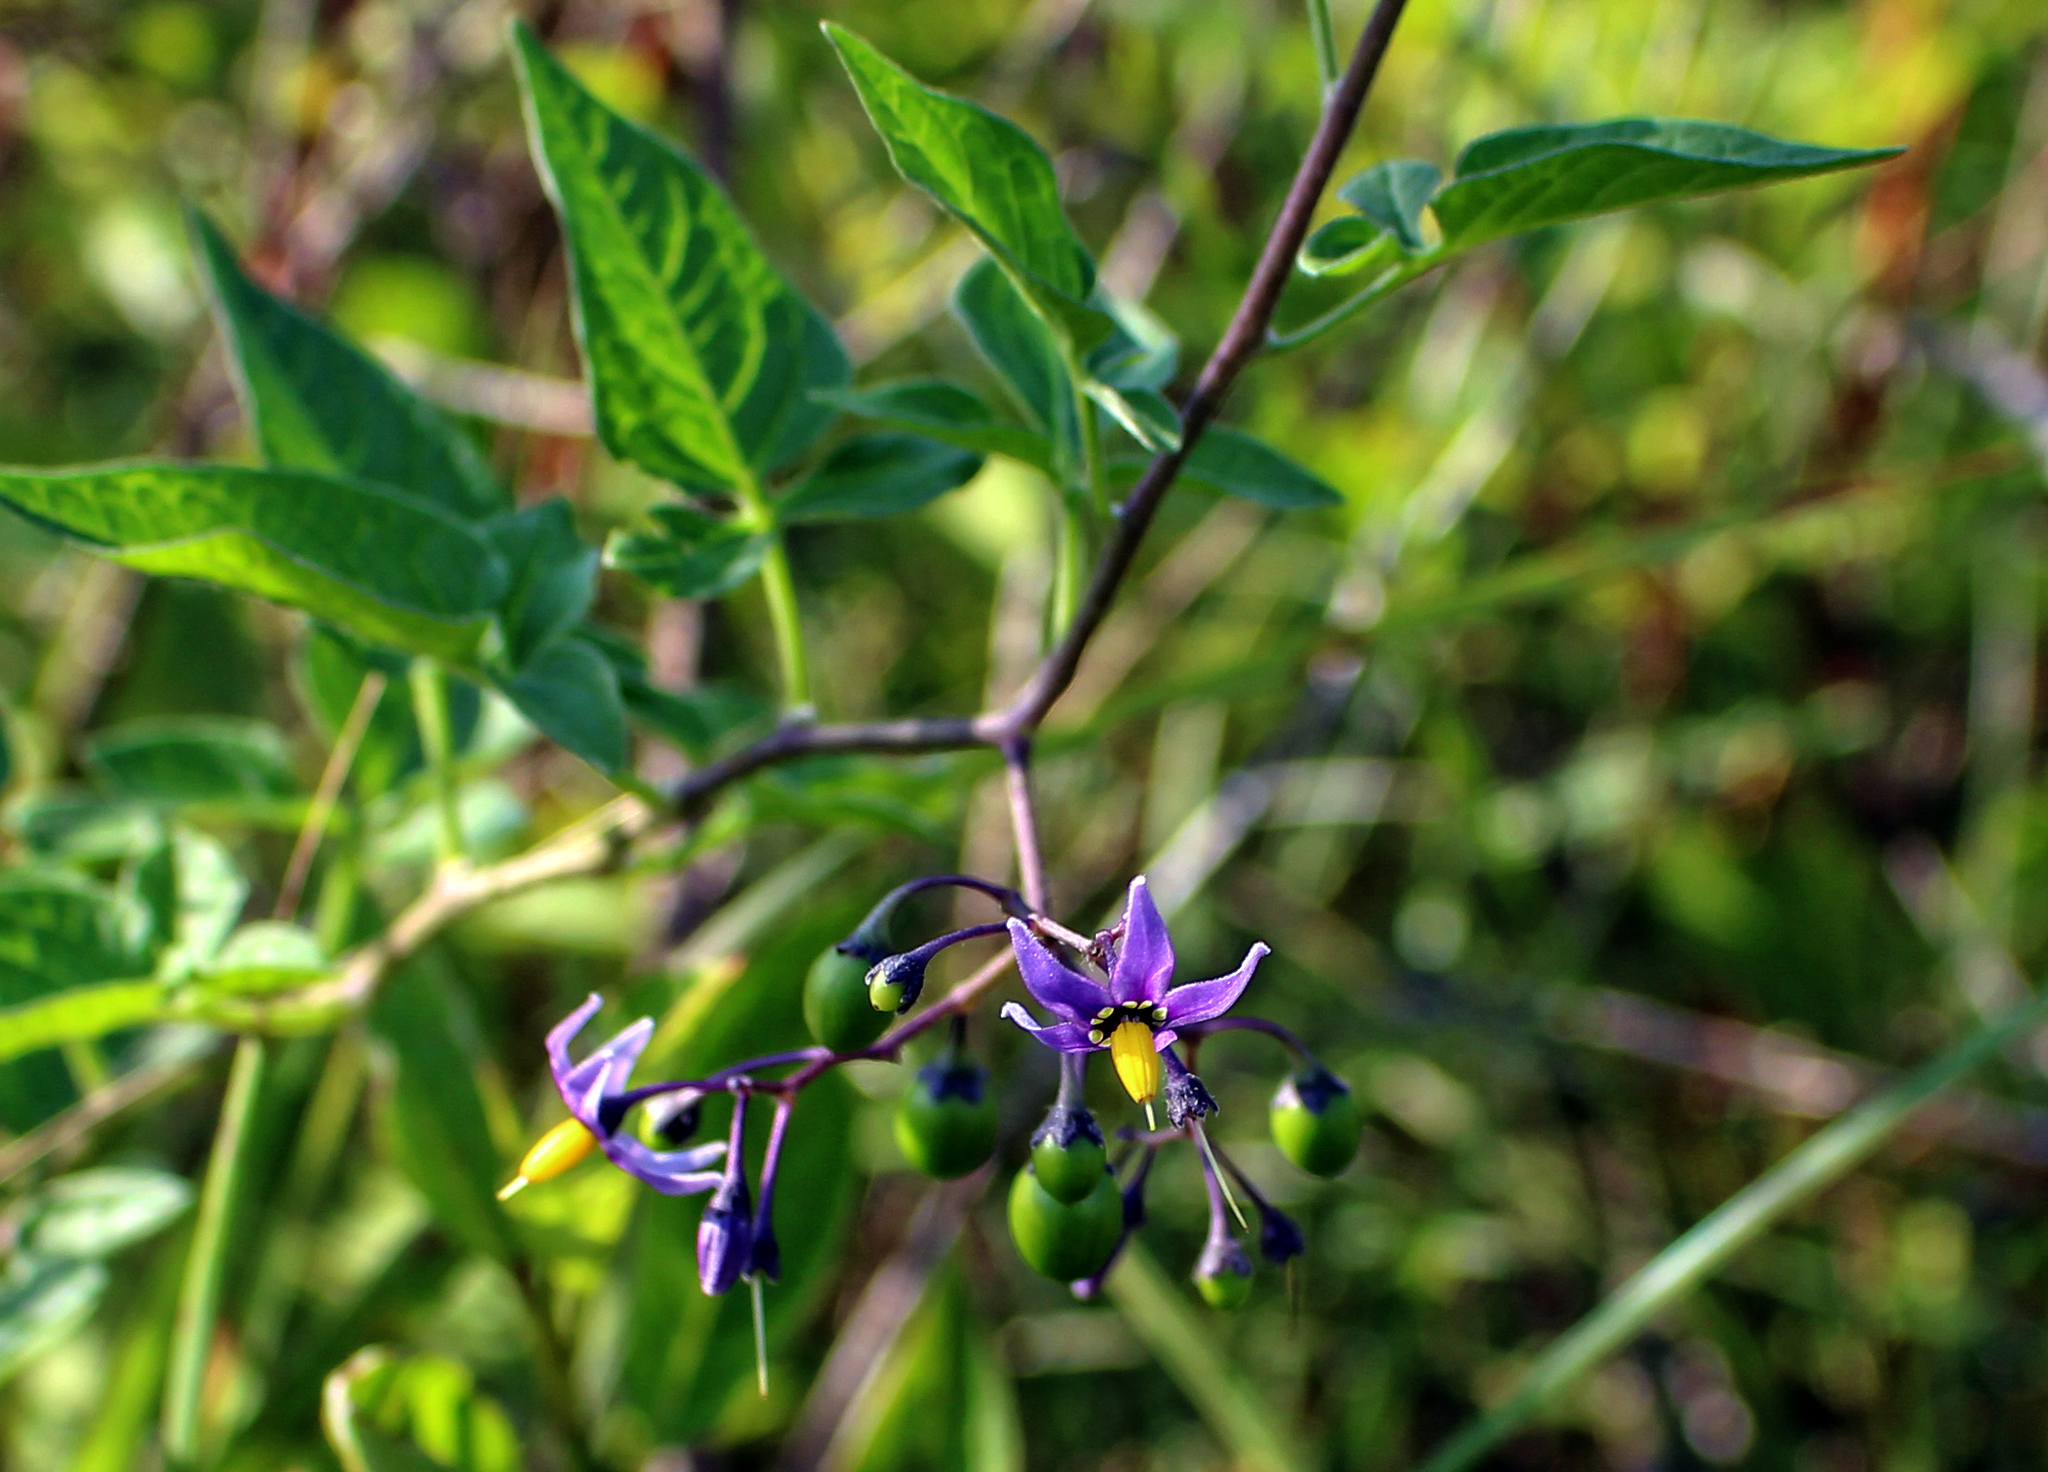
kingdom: Plantae
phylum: Tracheophyta
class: Magnoliopsida
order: Solanales
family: Solanaceae
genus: Solanum
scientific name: Solanum dulcamara
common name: Climbing nightshade
